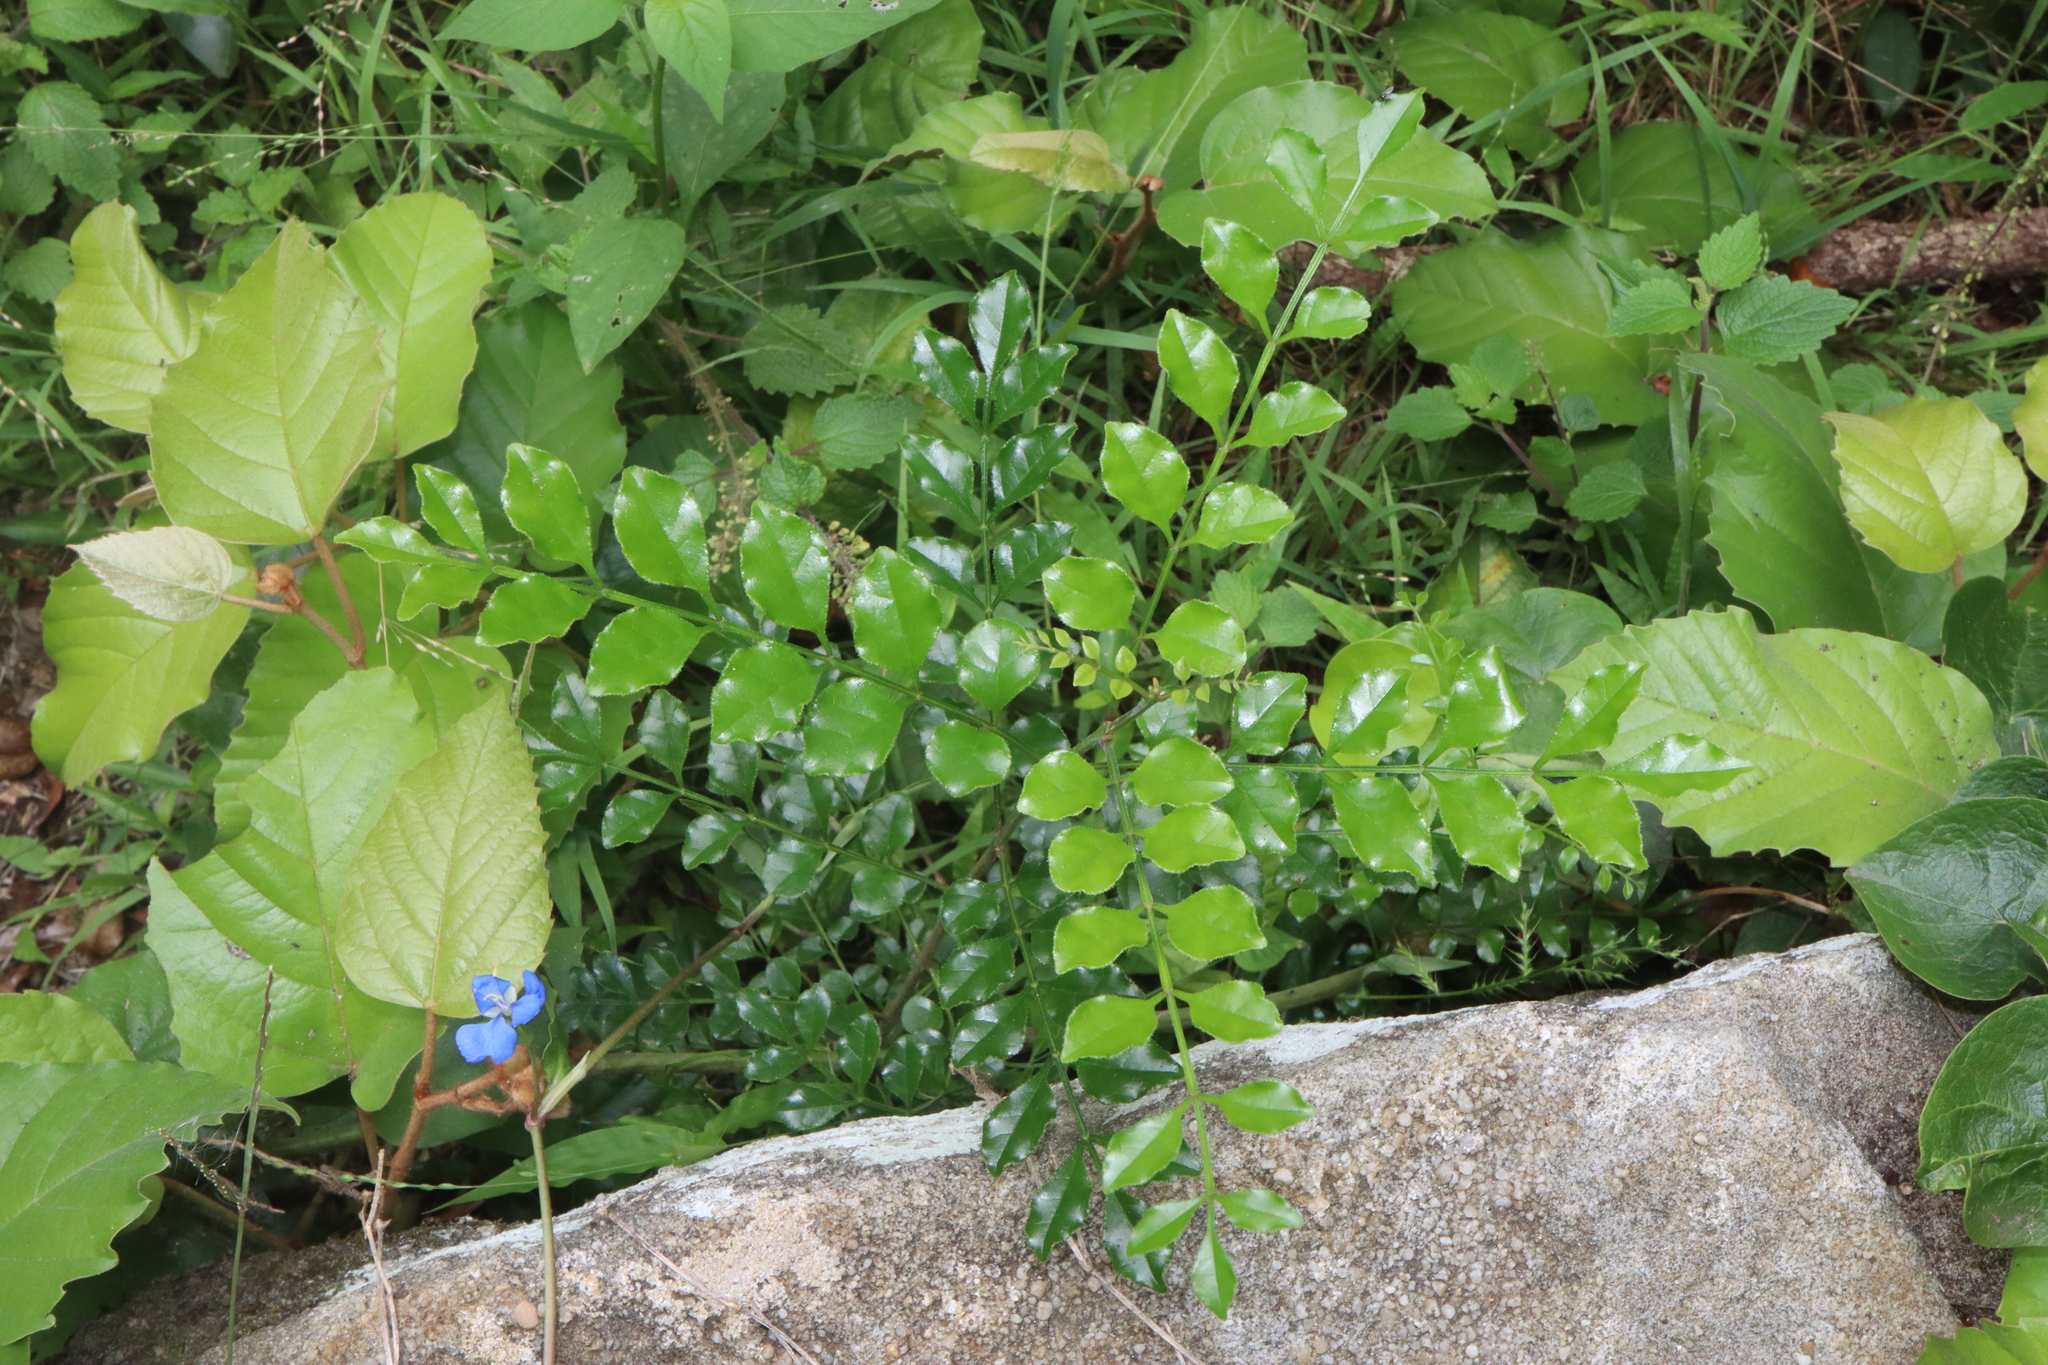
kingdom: Plantae
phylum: Tracheophyta
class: Magnoliopsida
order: Lamiales
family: Oleaceae
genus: Fraxinus
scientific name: Fraxinus griffithii
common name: Himalayan ash
